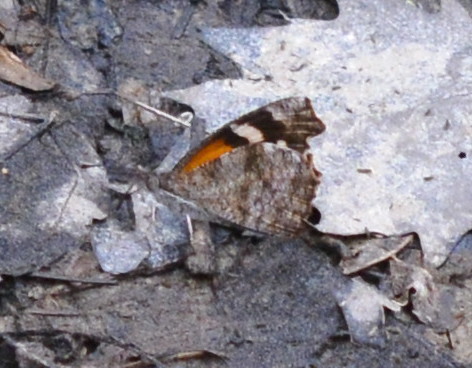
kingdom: Animalia
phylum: Arthropoda
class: Insecta
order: Lepidoptera
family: Nymphalidae
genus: Libytheana
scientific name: Libytheana carinenta
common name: American snout
